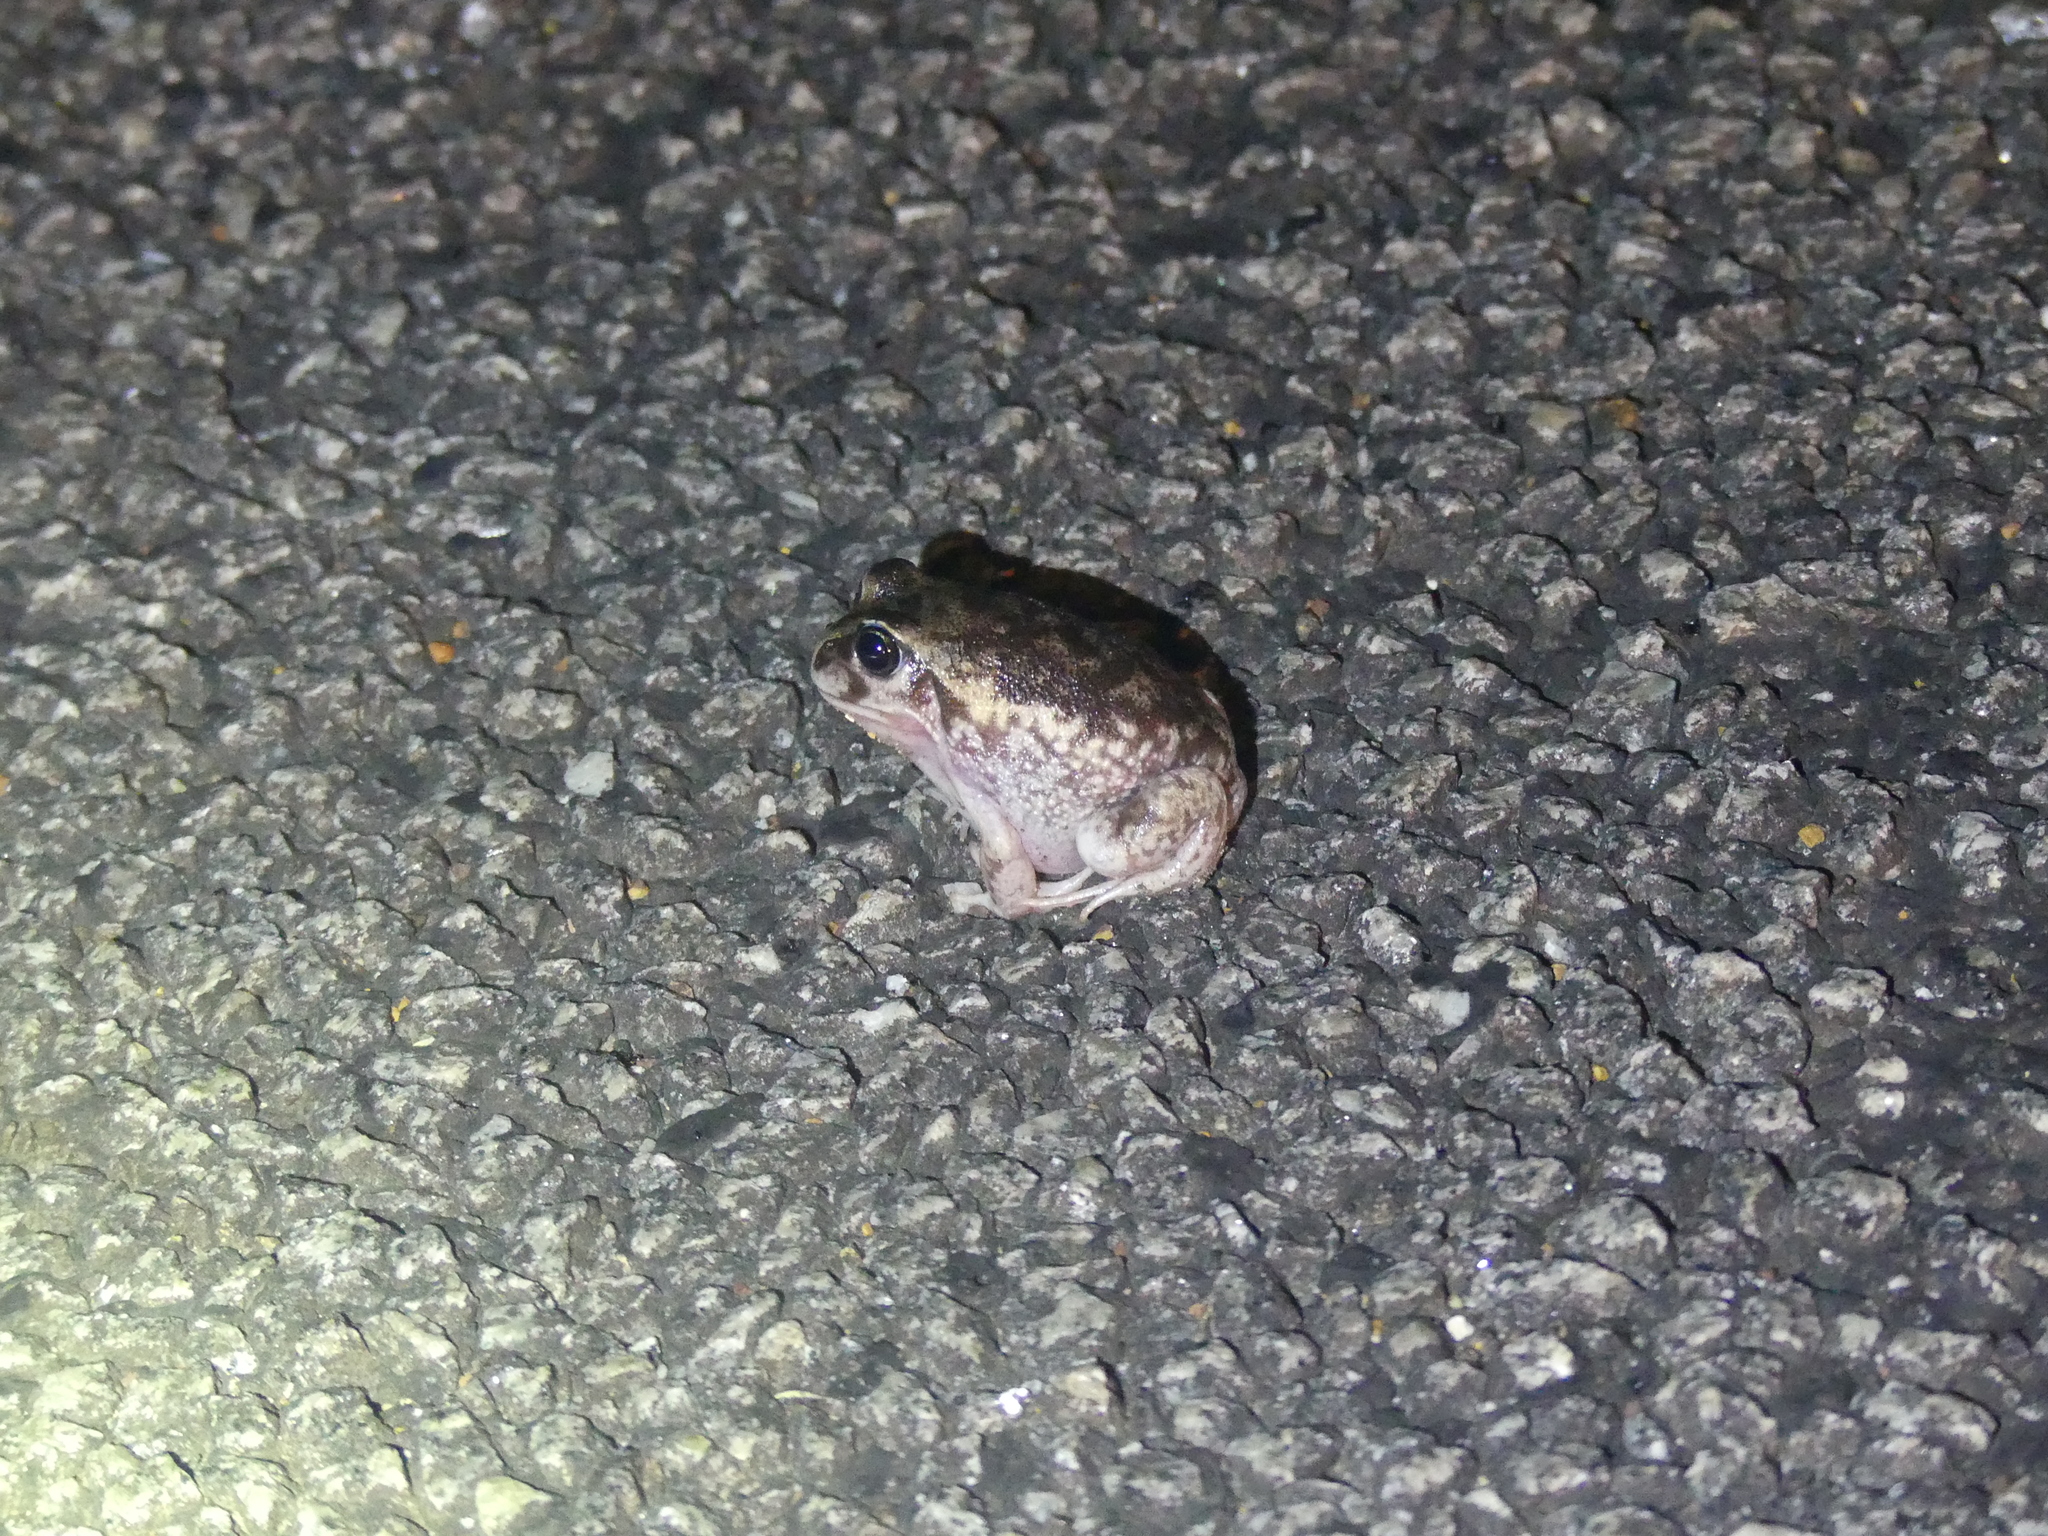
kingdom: Animalia
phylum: Chordata
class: Amphibia
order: Anura
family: Limnodynastidae
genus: Heleioporus
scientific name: Heleioporus eyrei
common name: Moaning frog
